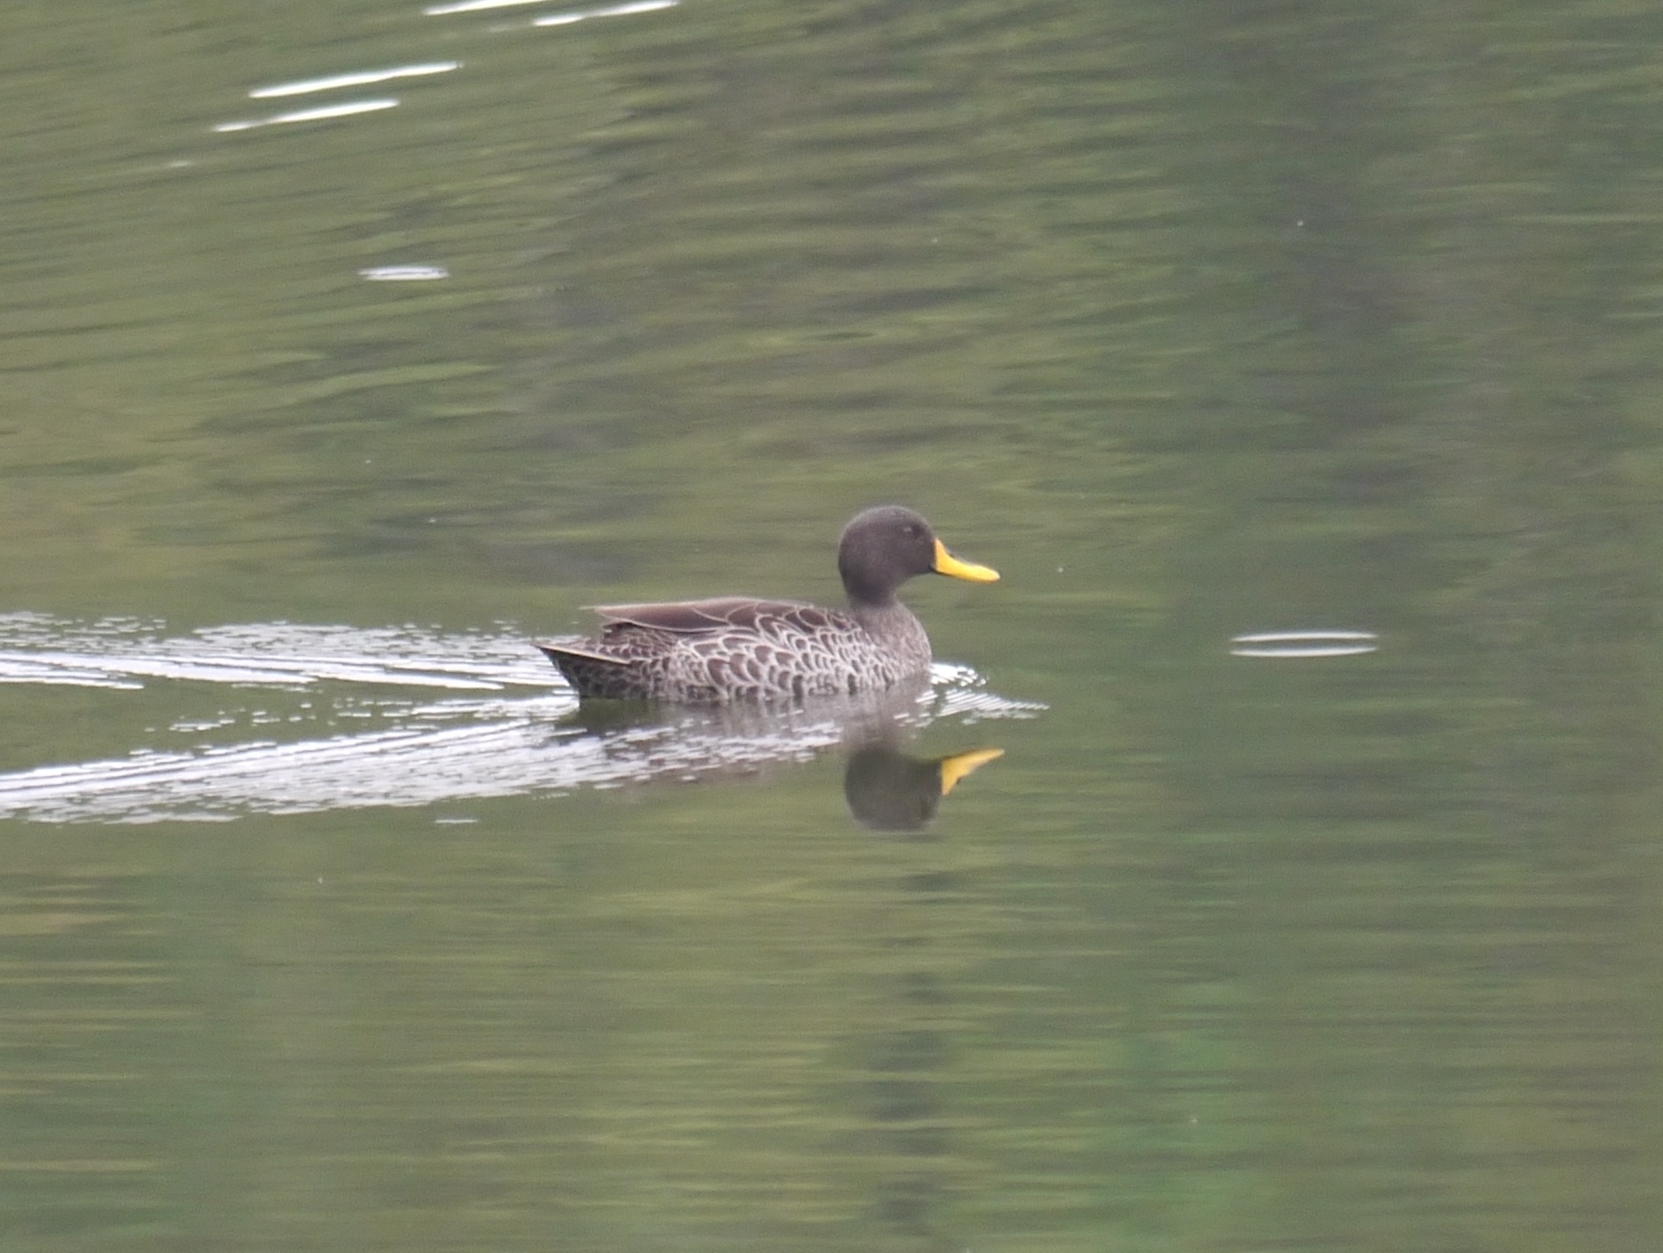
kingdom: Animalia
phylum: Chordata
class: Aves
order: Anseriformes
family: Anatidae
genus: Anas
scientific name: Anas undulata
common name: Yellow-billed duck
